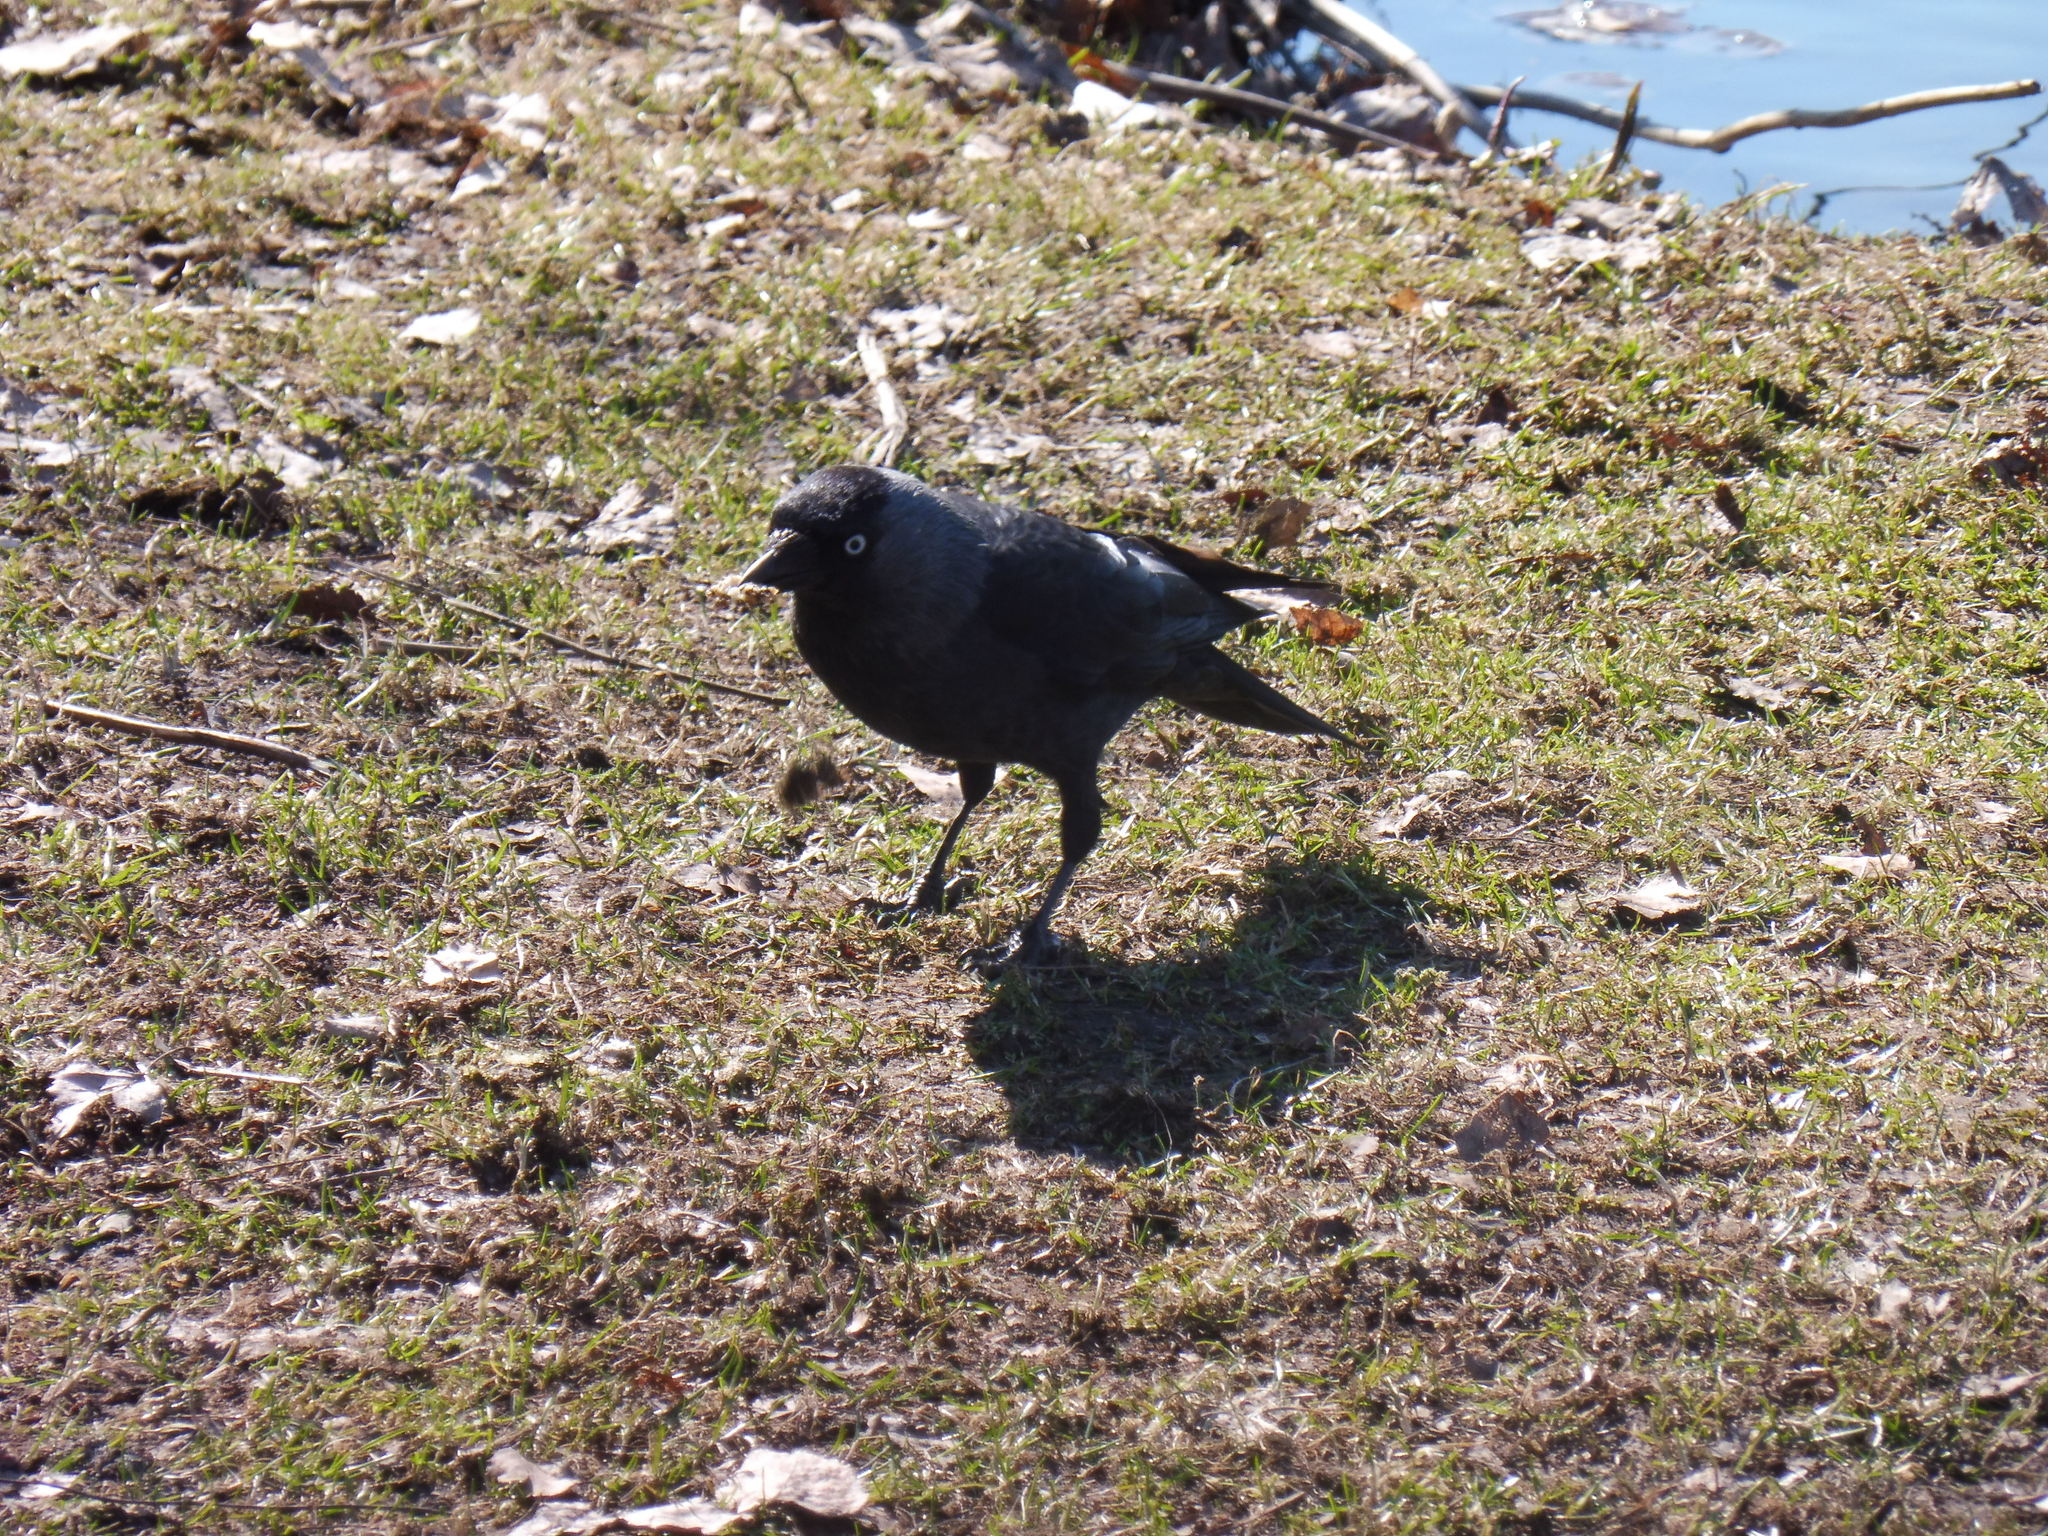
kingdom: Animalia
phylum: Chordata
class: Aves
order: Passeriformes
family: Corvidae
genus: Coloeus
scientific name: Coloeus monedula
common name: Western jackdaw
